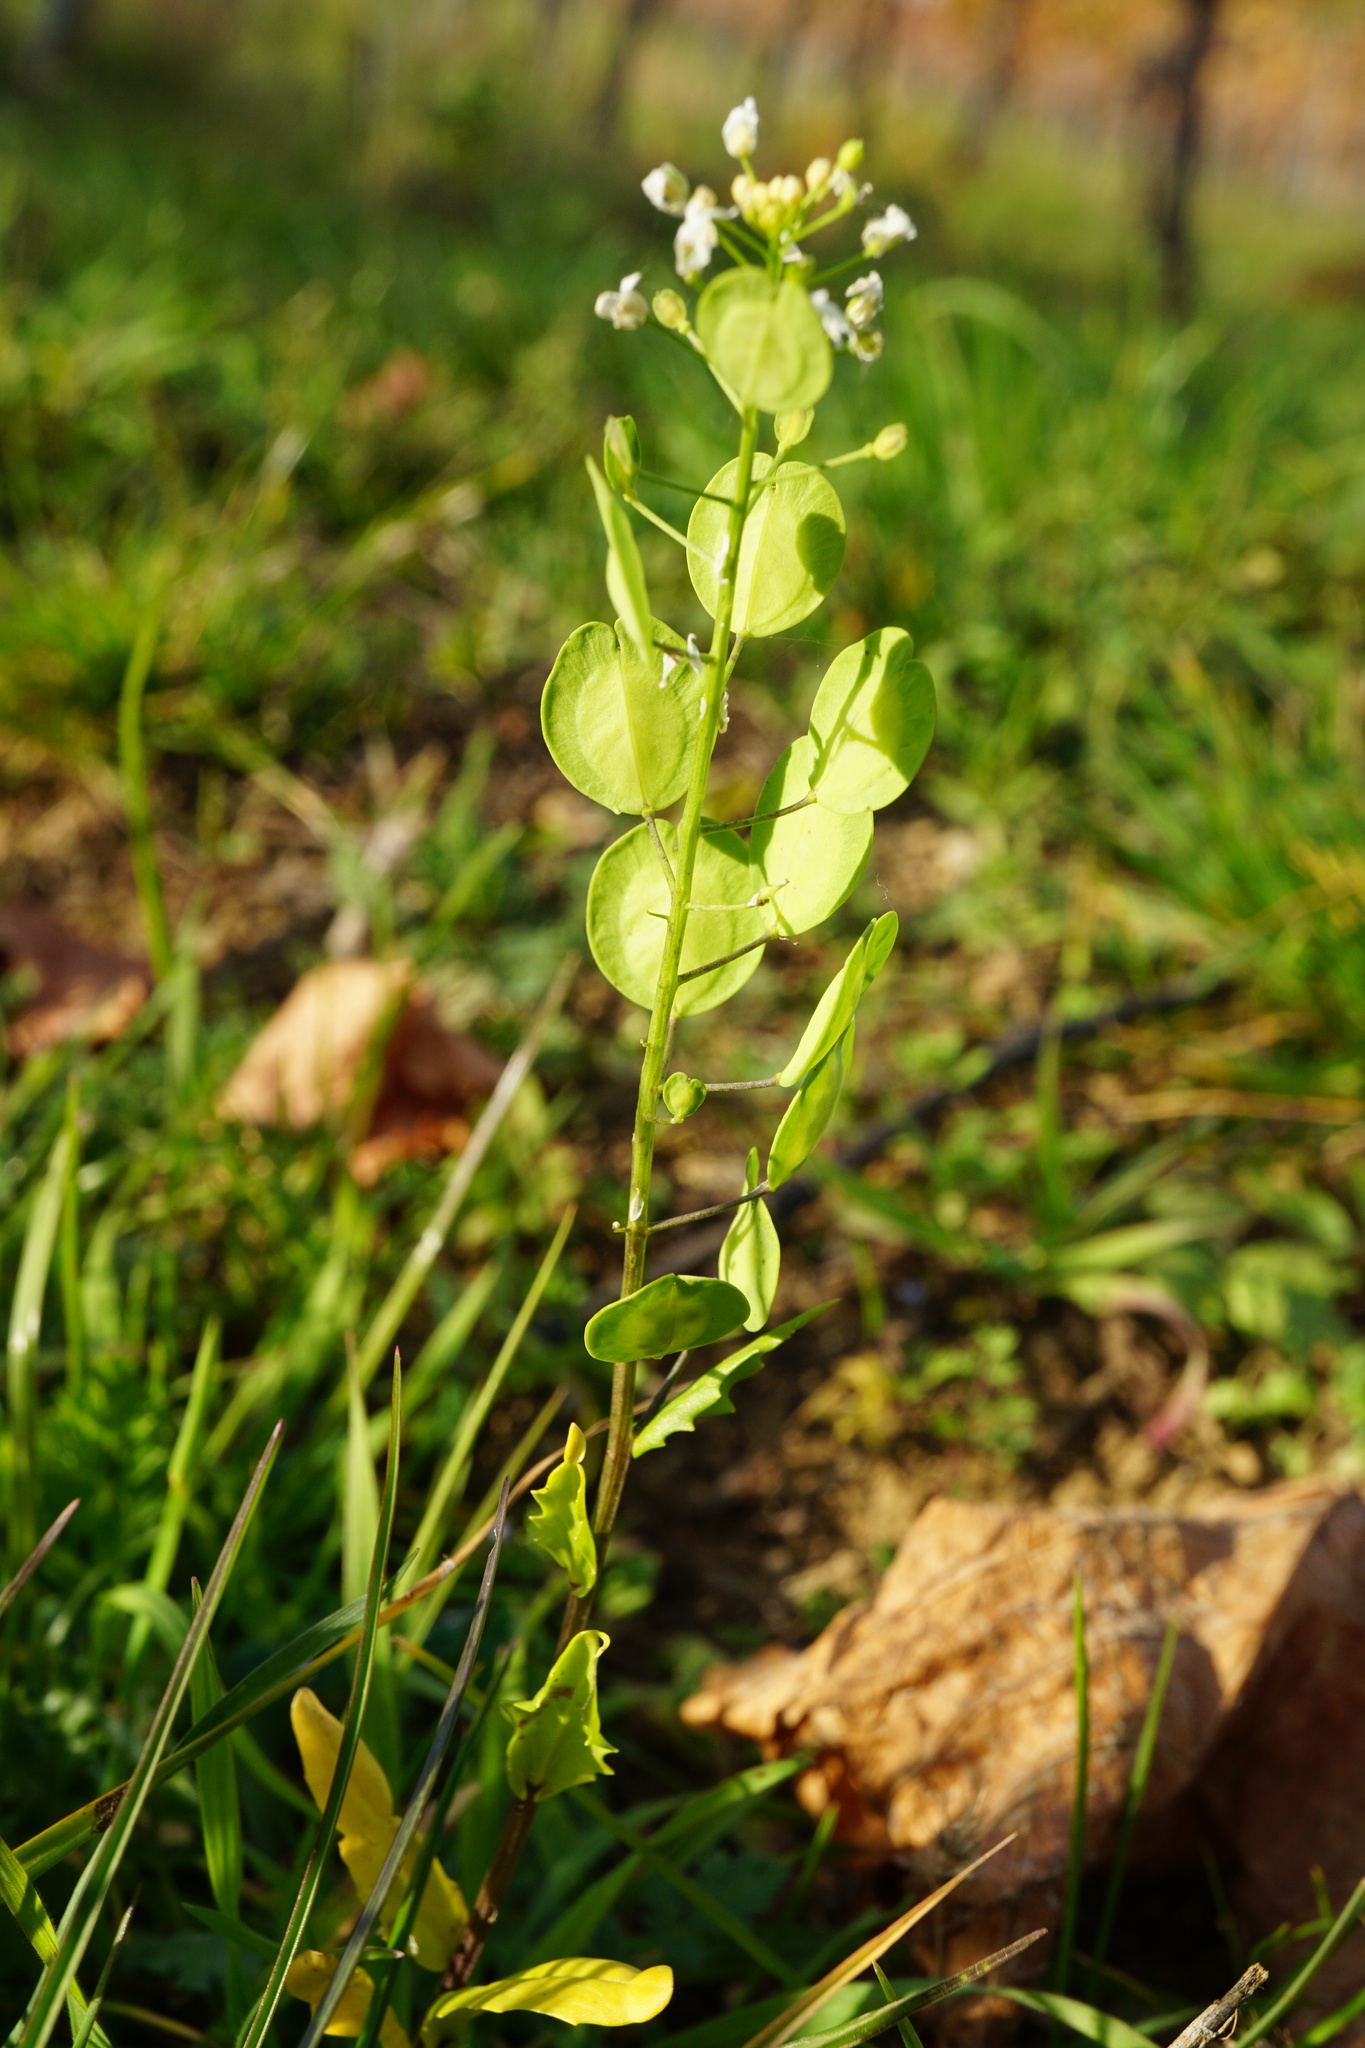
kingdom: Plantae
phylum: Tracheophyta
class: Magnoliopsida
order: Brassicales
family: Brassicaceae
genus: Thlaspi
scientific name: Thlaspi arvense
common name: Field pennycress
